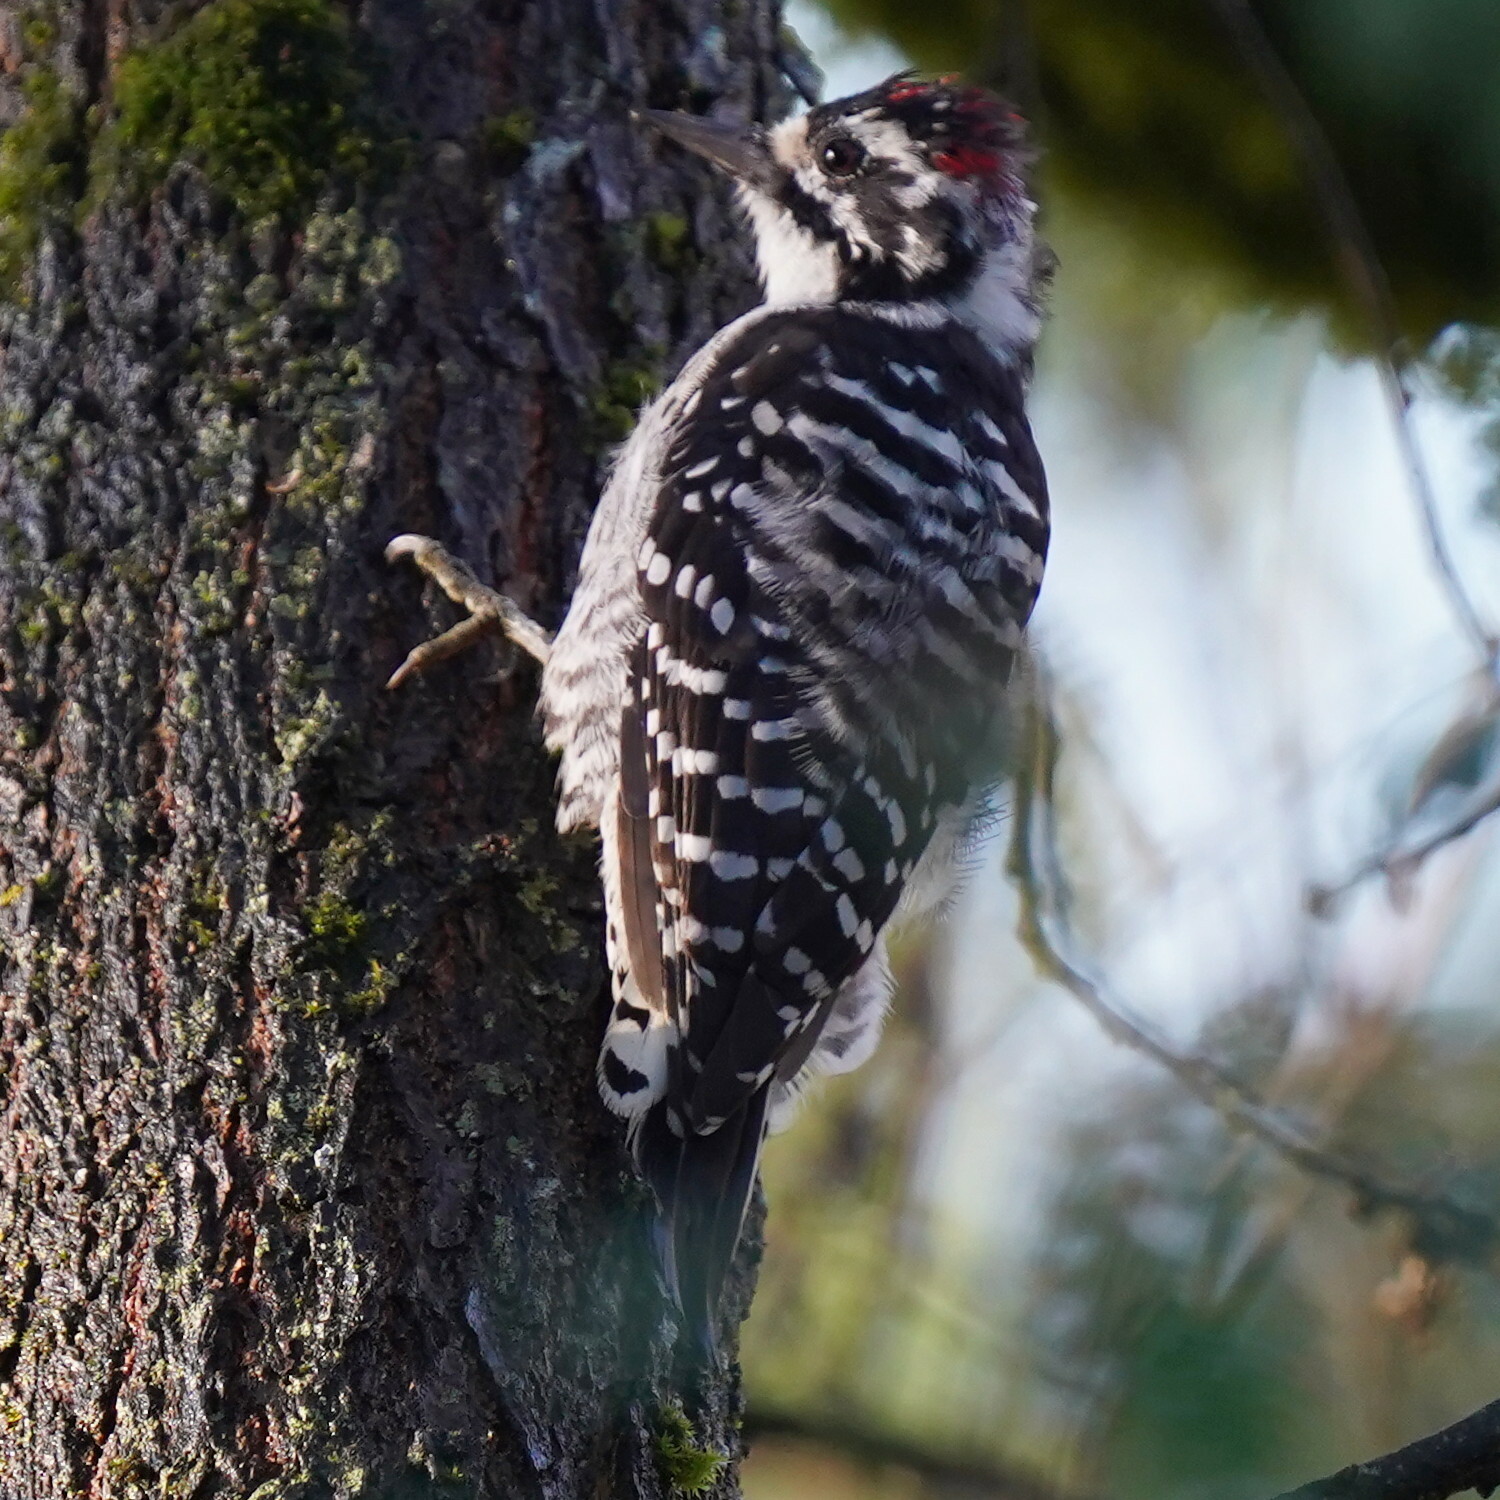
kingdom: Animalia
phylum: Chordata
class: Aves
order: Piciformes
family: Picidae
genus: Dryobates
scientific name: Dryobates nuttallii
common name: Nuttall's woodpecker
